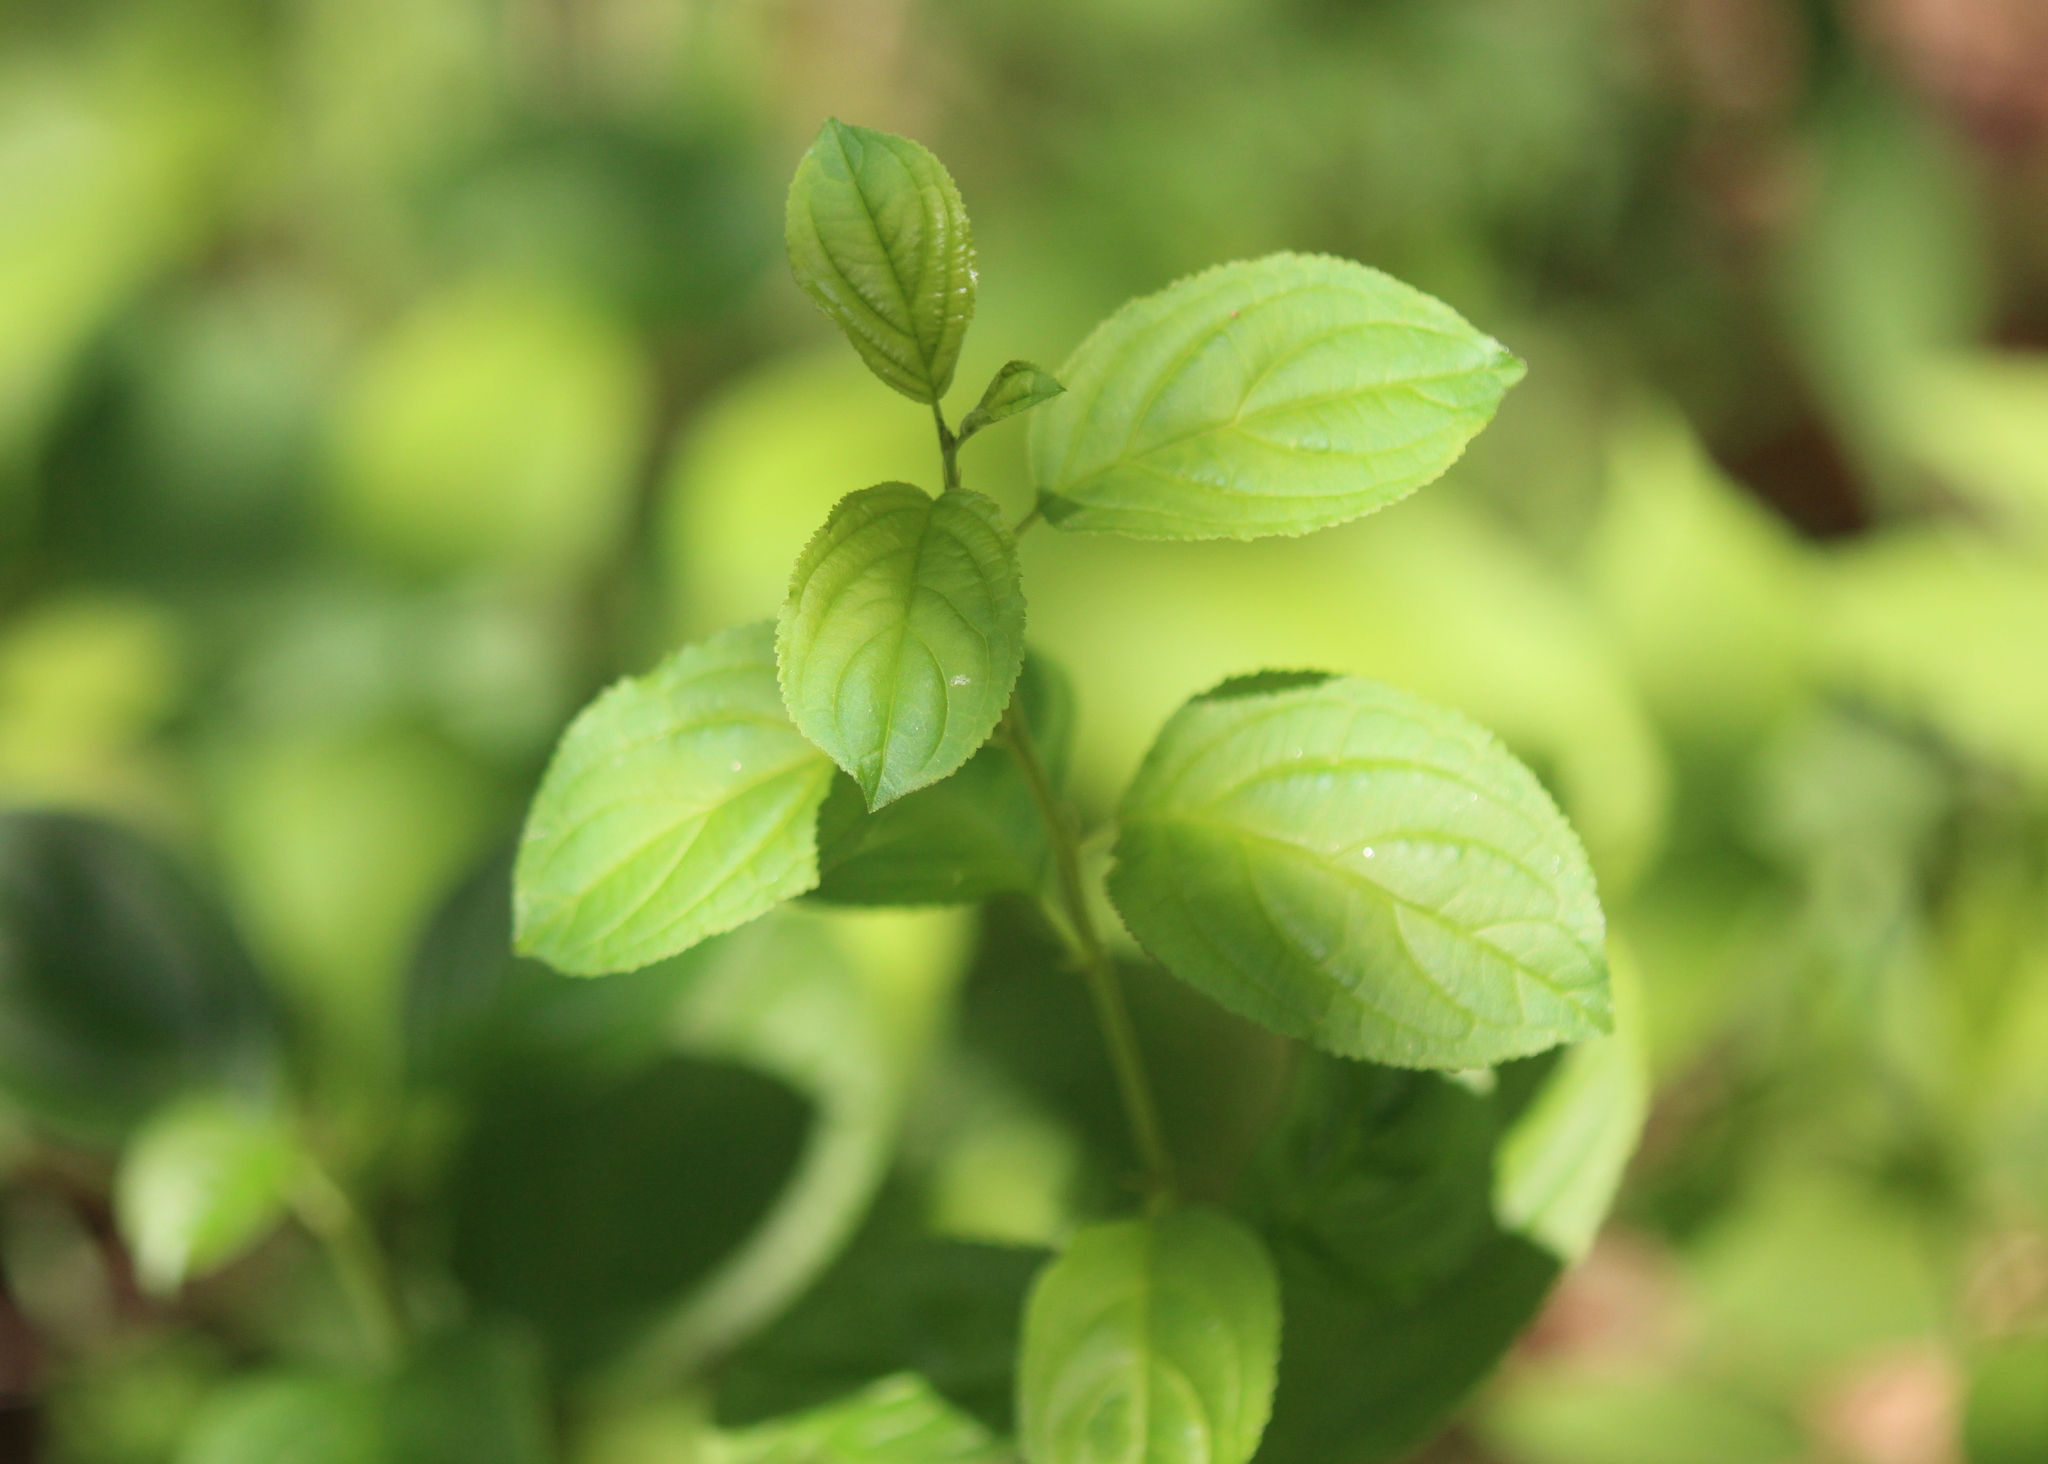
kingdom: Plantae
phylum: Tracheophyta
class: Magnoliopsida
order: Rosales
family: Rhamnaceae
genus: Rhamnus
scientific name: Rhamnus cathartica
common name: Common buckthorn
